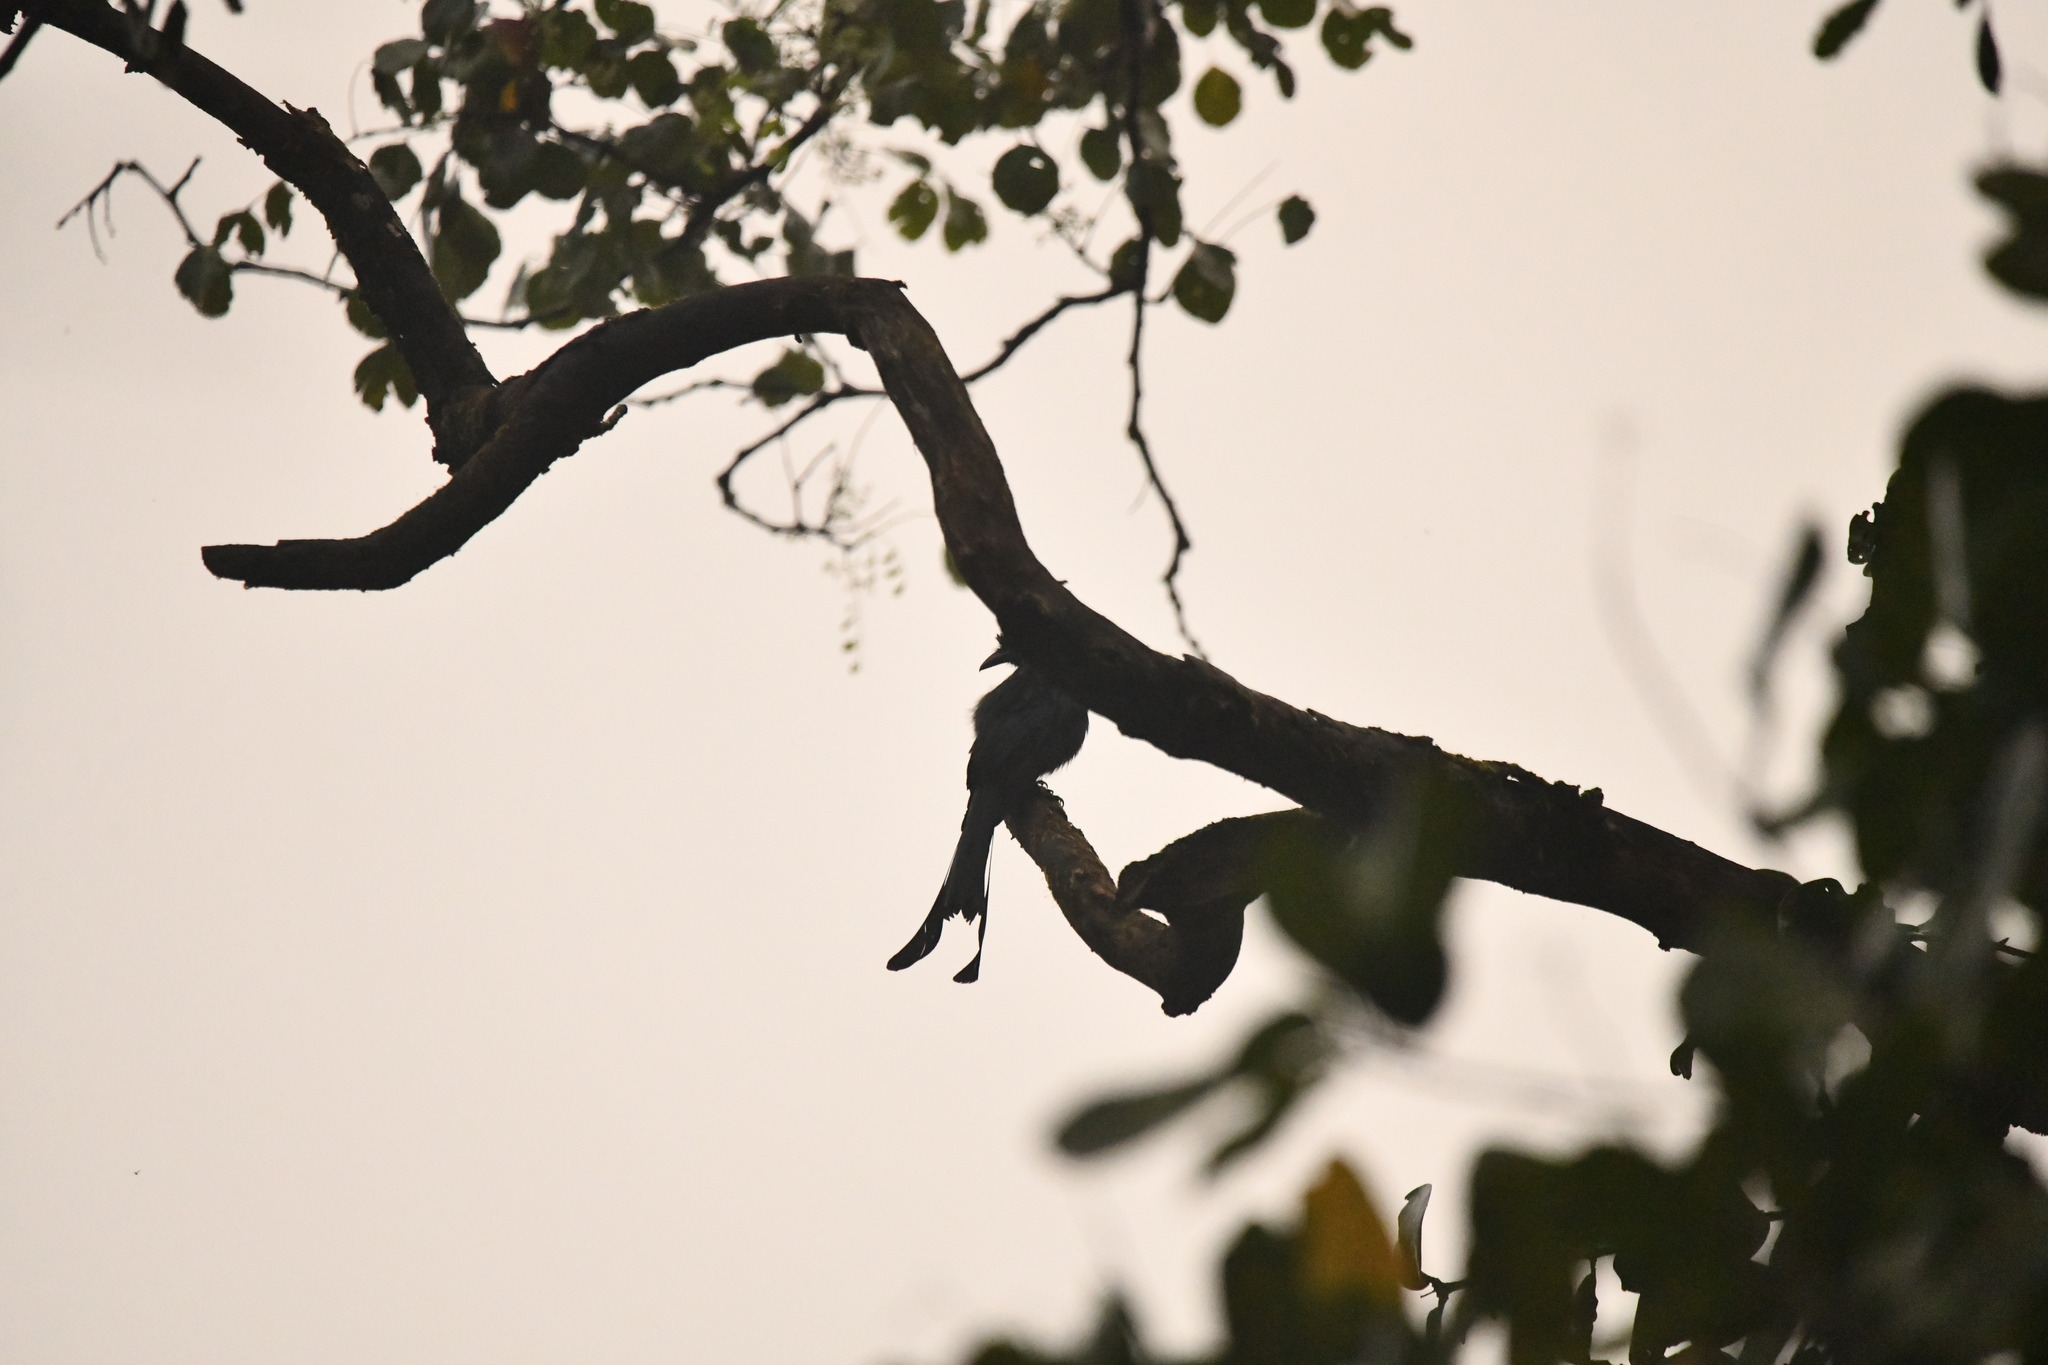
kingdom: Animalia
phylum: Chordata
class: Aves
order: Passeriformes
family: Dicruridae
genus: Dicrurus
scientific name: Dicrurus paradiseus
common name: Greater racket-tailed drongo
